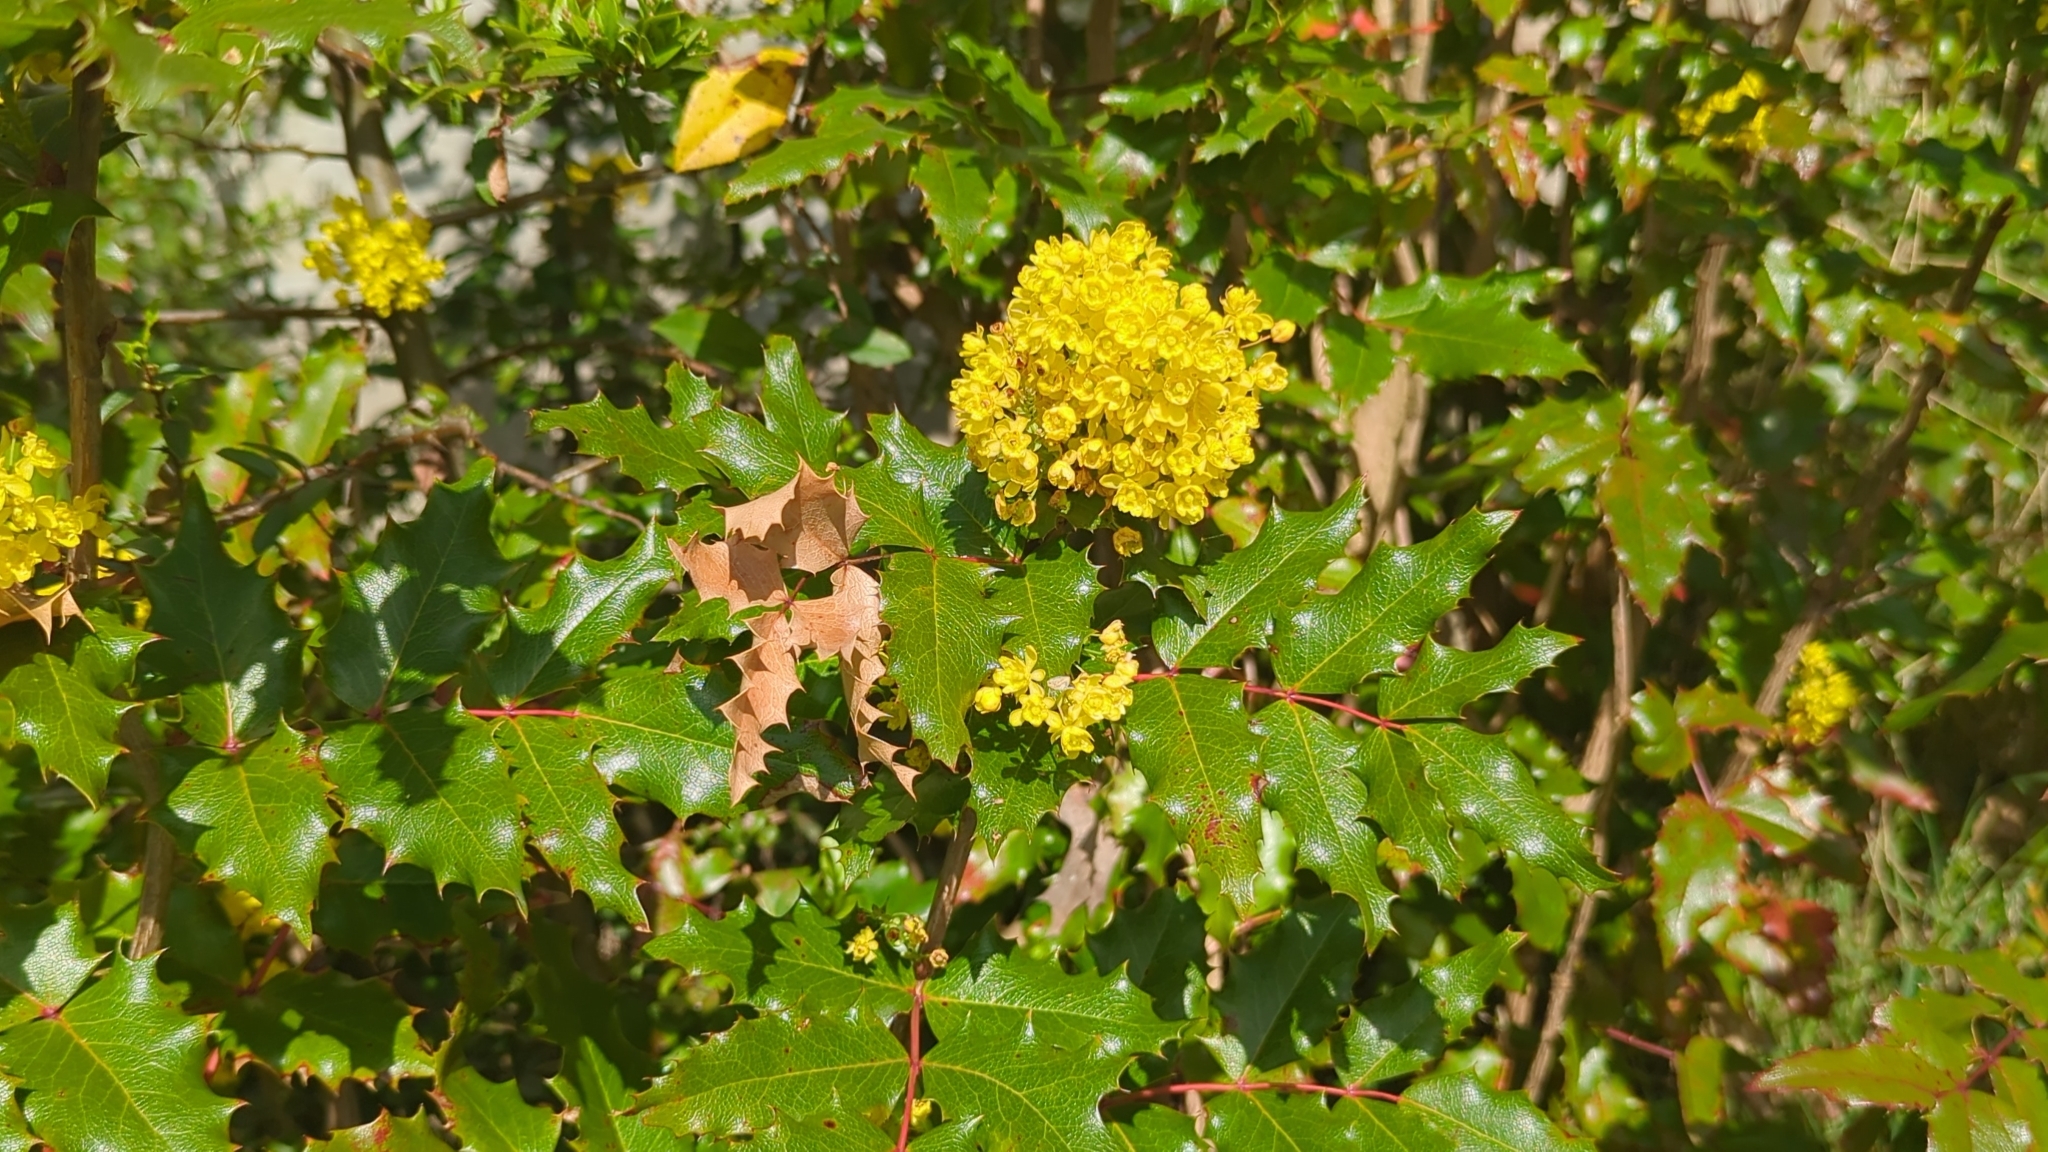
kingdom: Plantae
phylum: Tracheophyta
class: Magnoliopsida
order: Ranunculales
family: Berberidaceae
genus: Mahonia
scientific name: Mahonia aquifolium
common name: Oregon-grape
